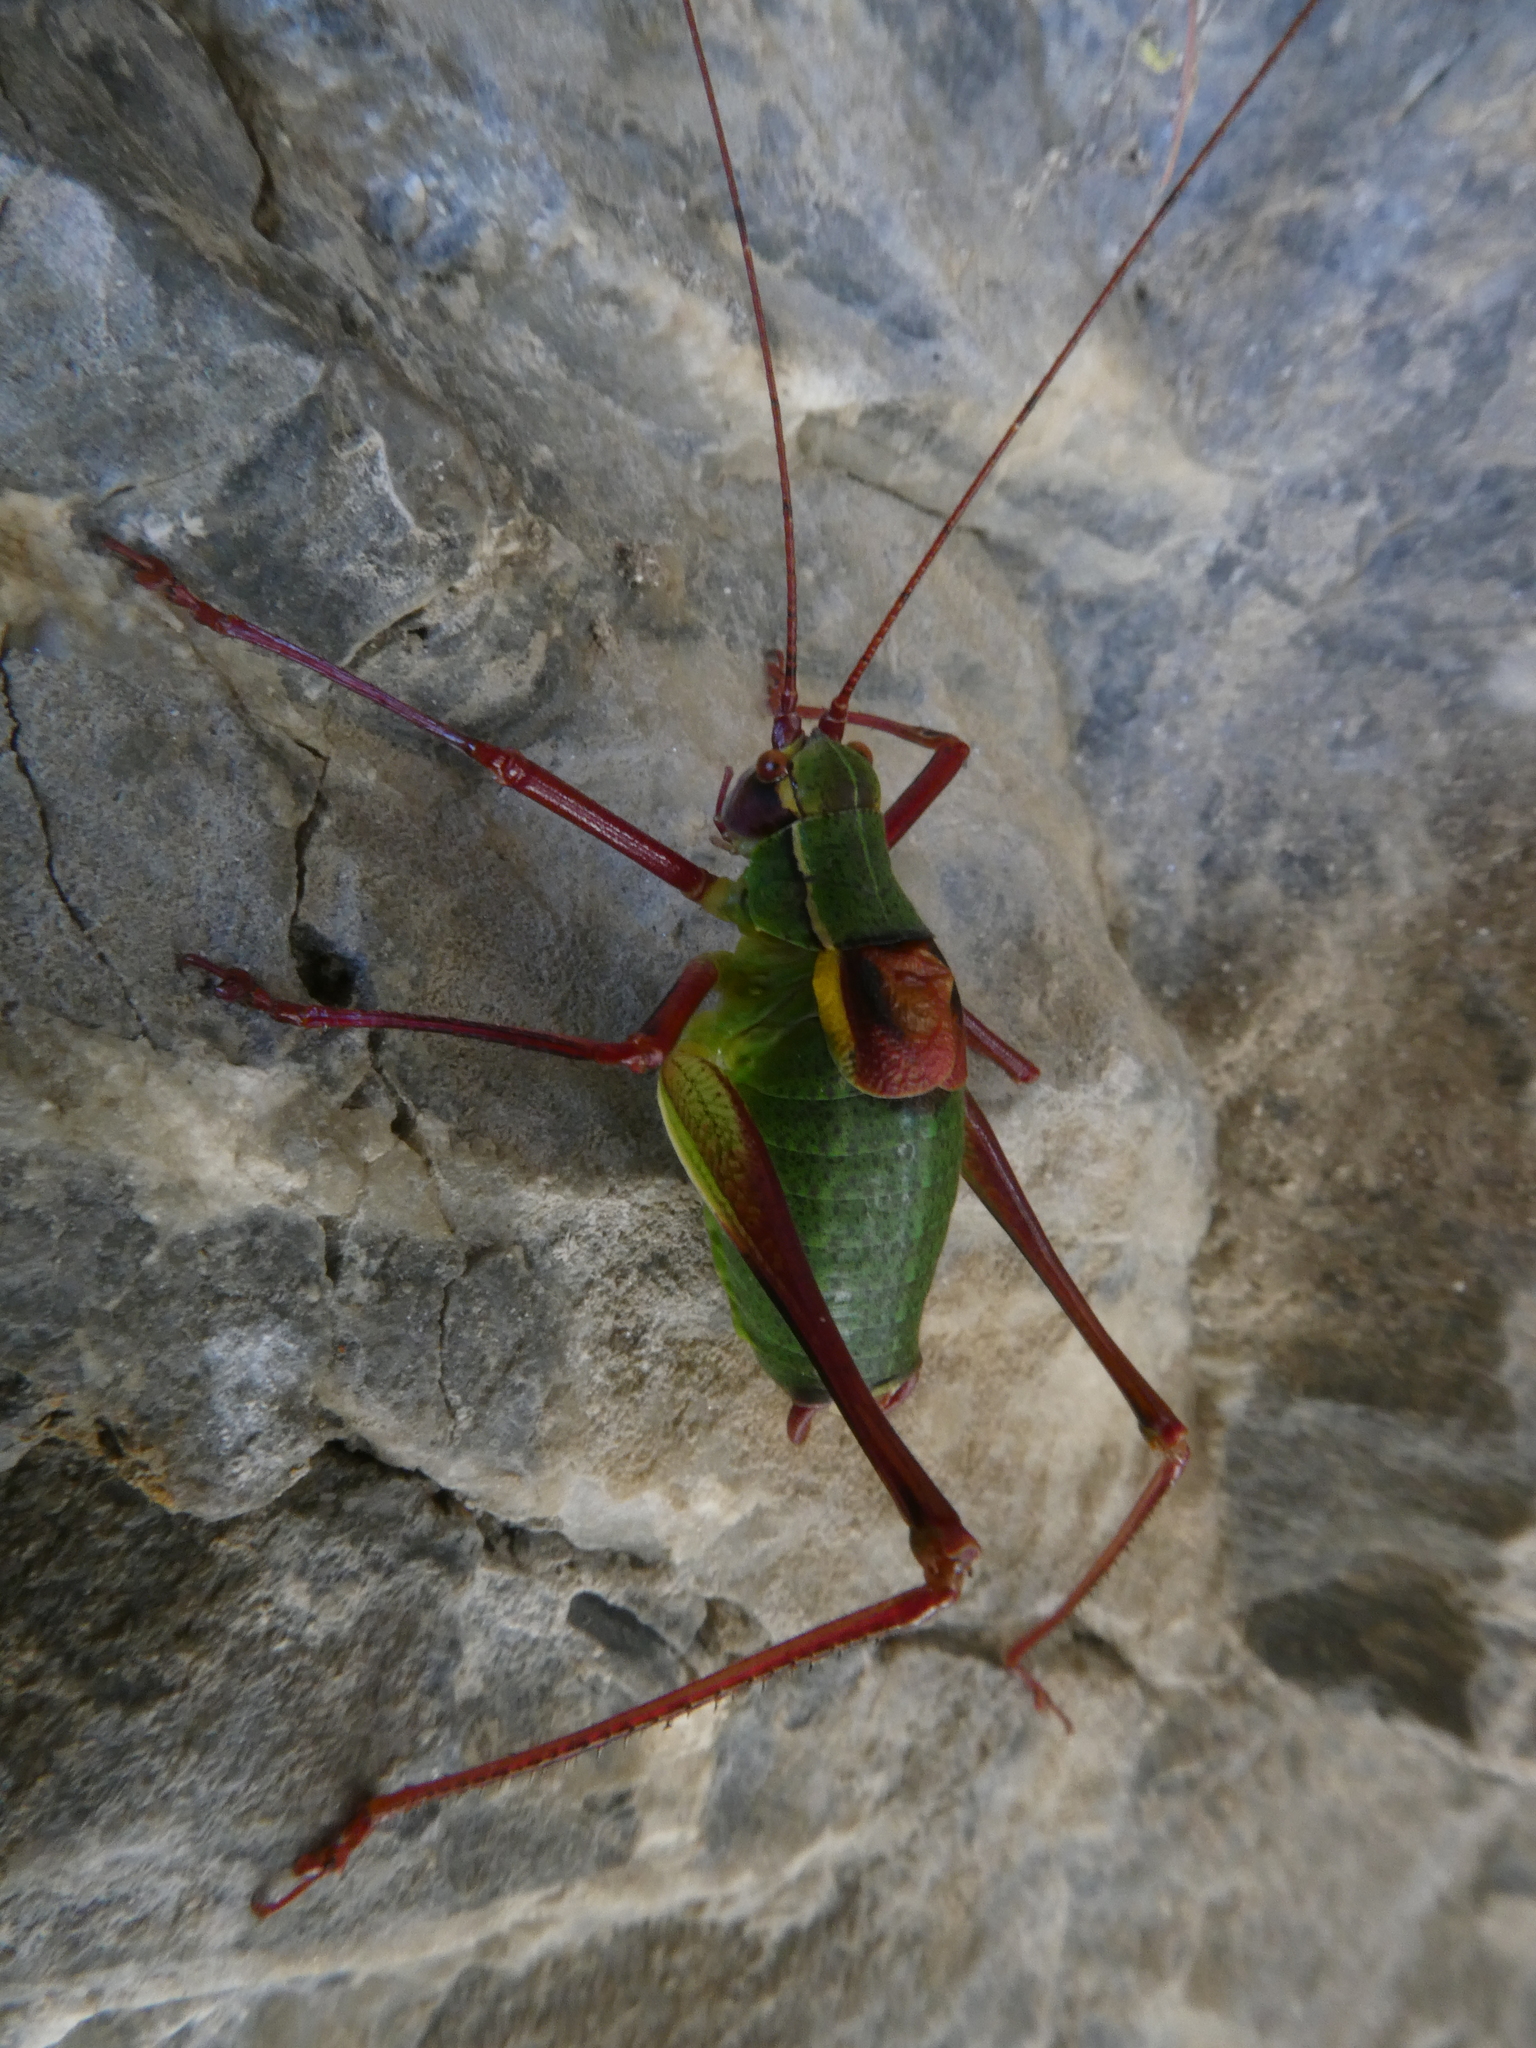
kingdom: Animalia
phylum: Arthropoda
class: Insecta
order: Orthoptera
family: Tettigoniidae
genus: Barbitistes
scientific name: Barbitistes serricauda
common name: Saw-tailed bush-cricket
